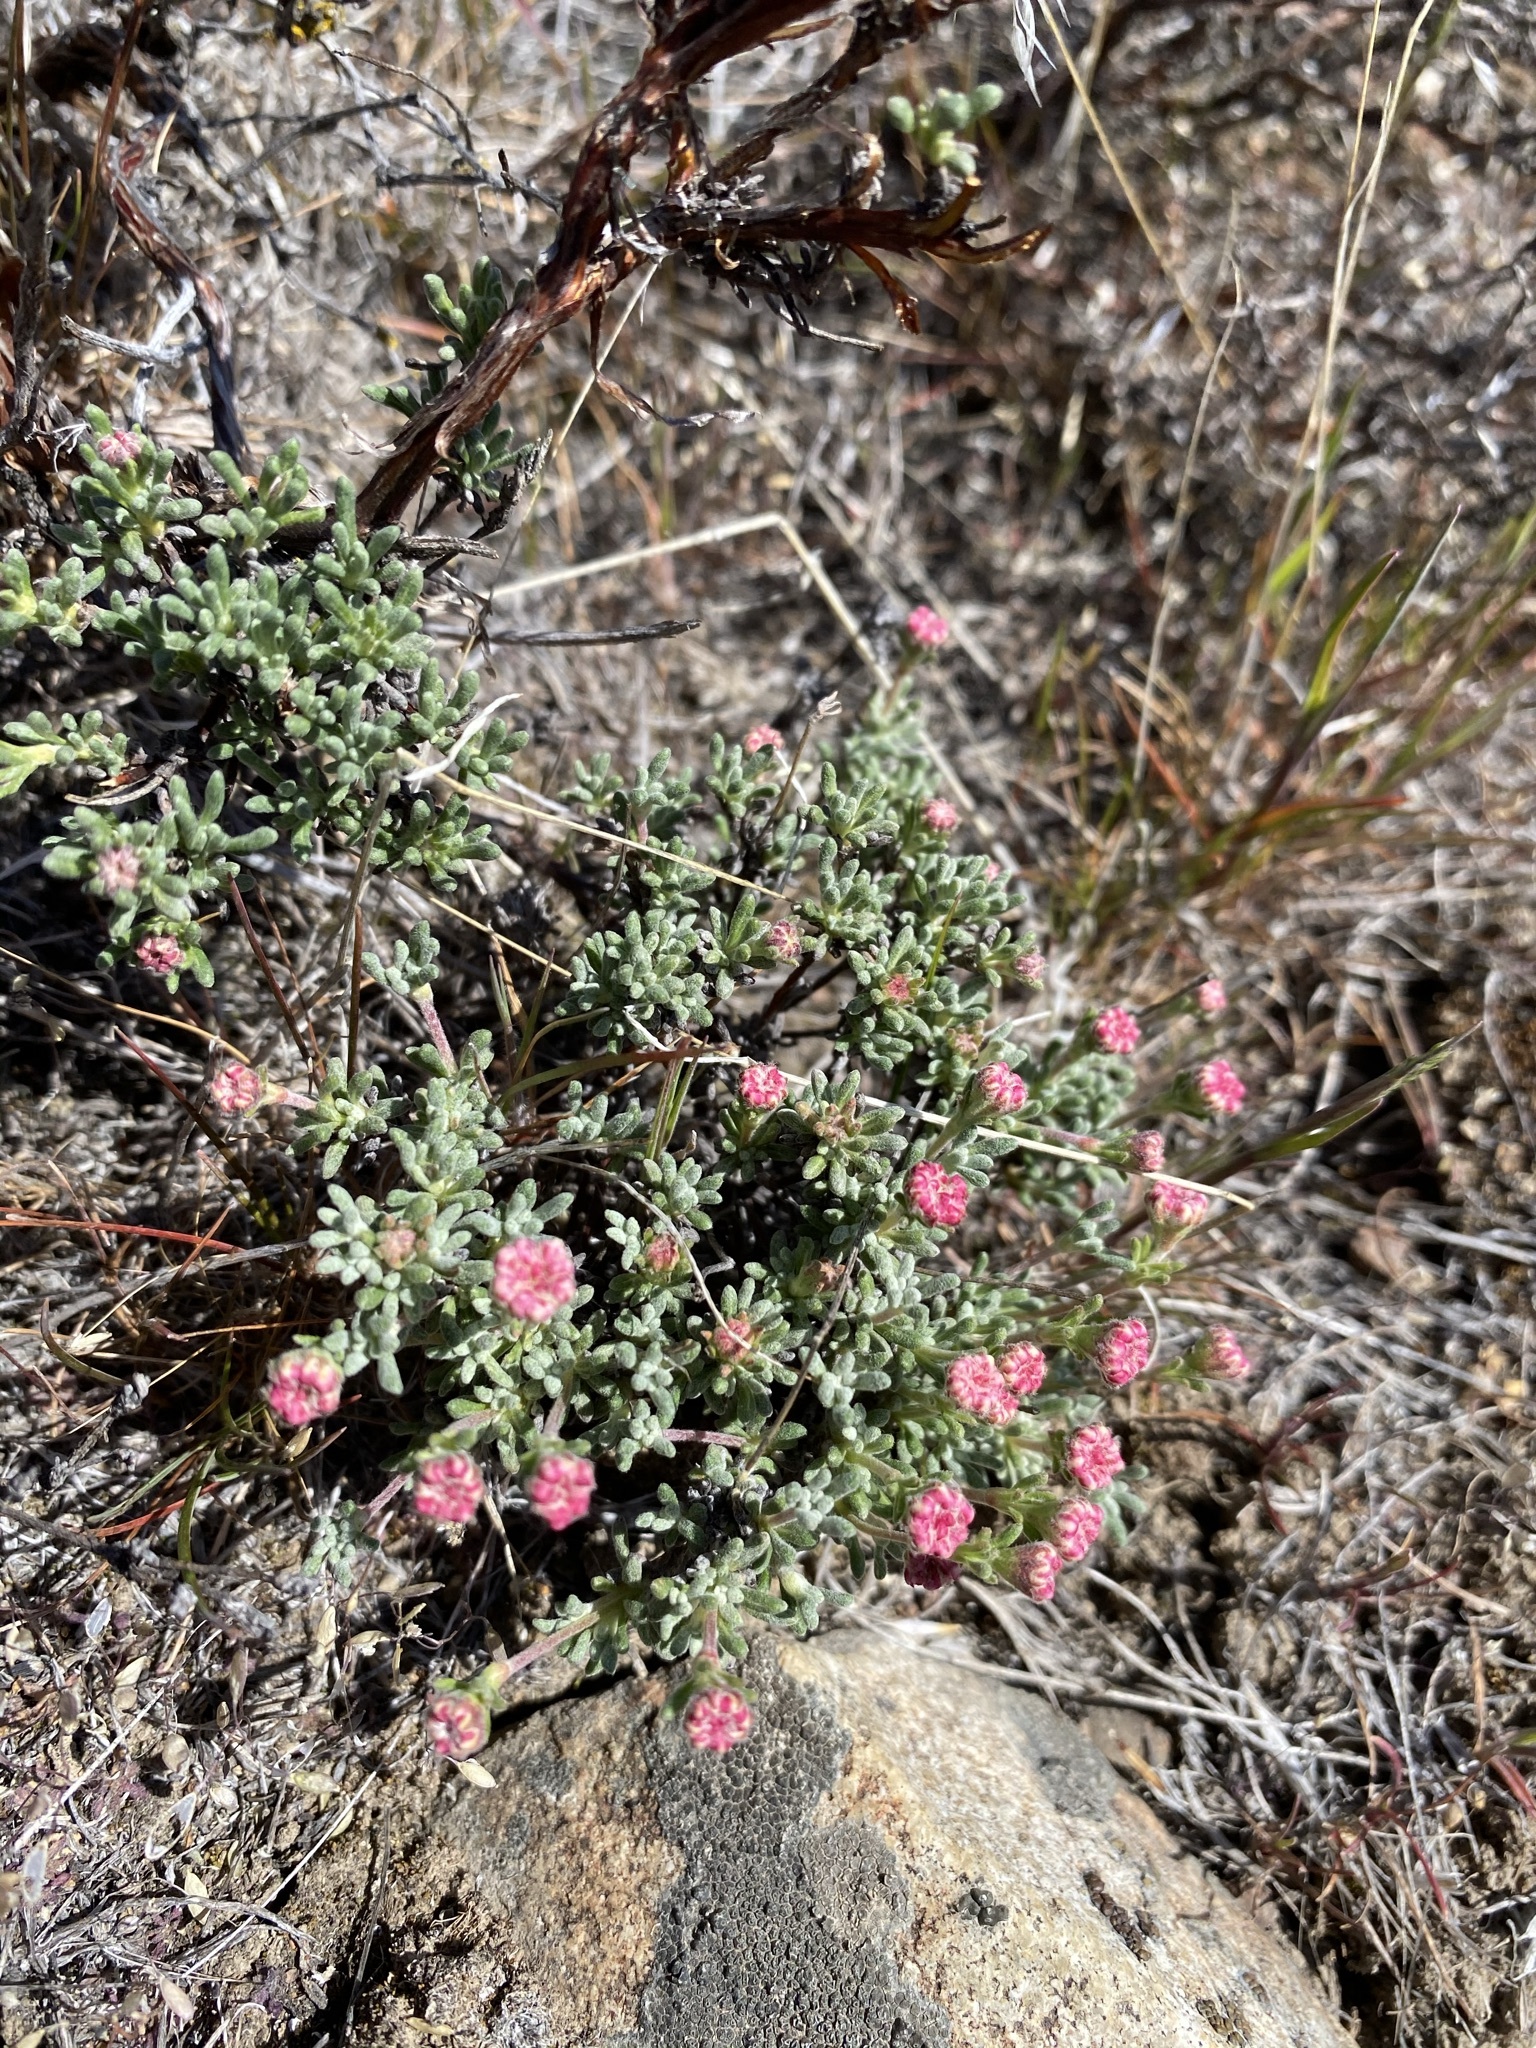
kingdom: Plantae
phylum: Tracheophyta
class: Magnoliopsida
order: Caryophyllales
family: Polygonaceae
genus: Eriogonum
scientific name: Eriogonum thymoides
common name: Thyme-leaf wild buckwheat
